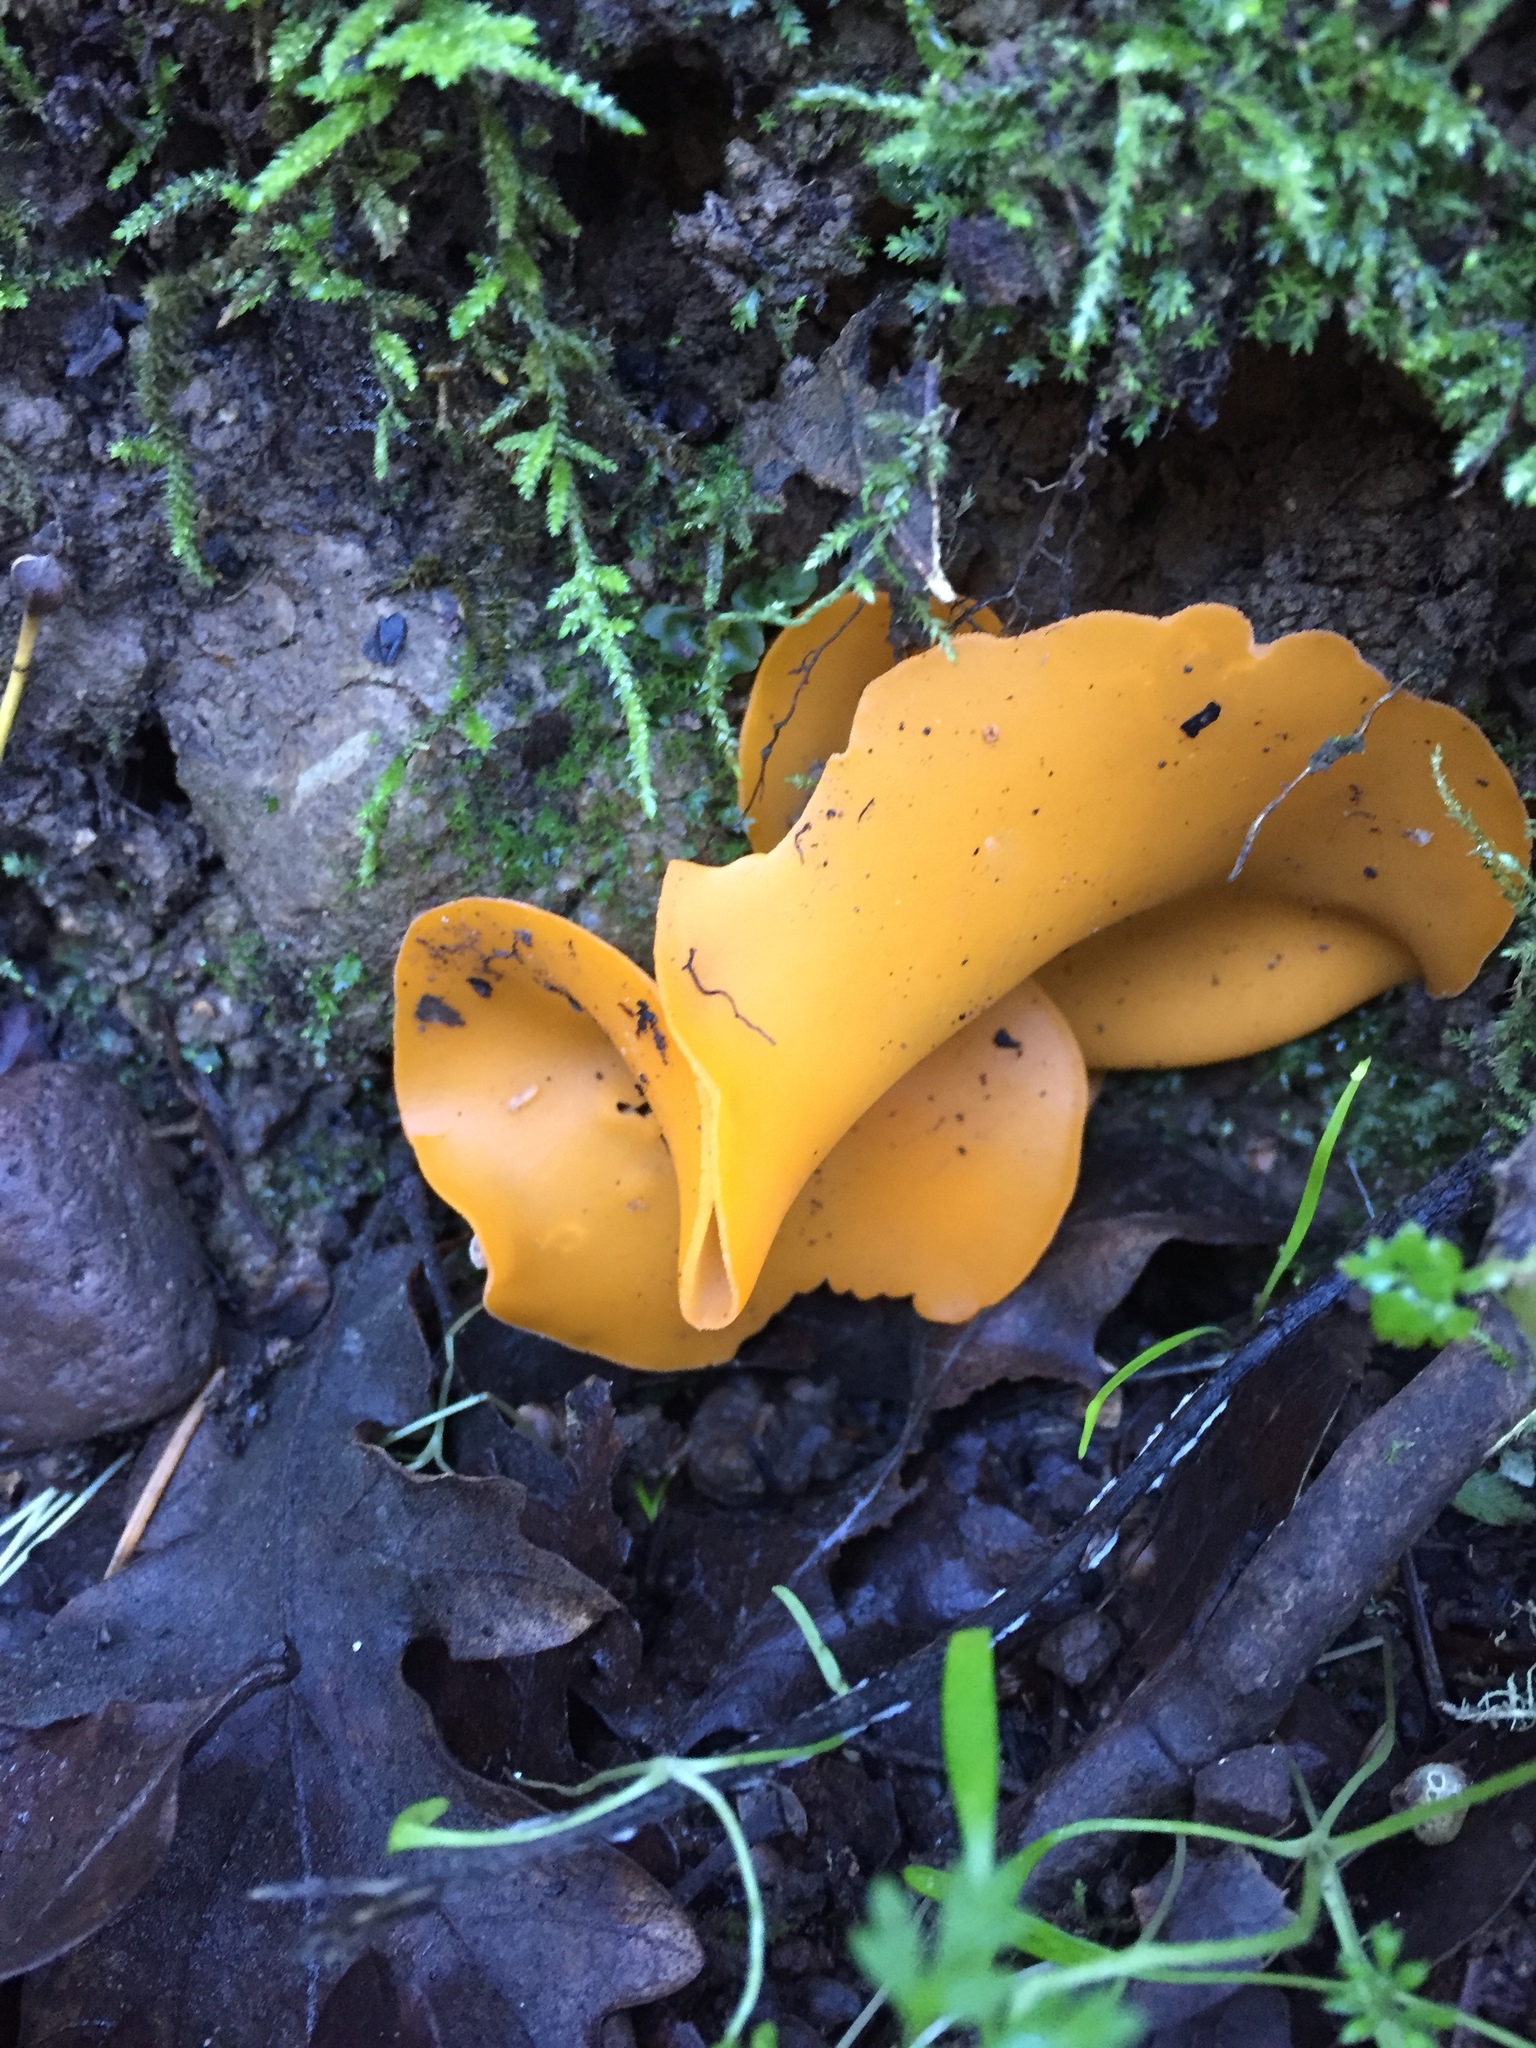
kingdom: Fungi
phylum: Ascomycota
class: Pezizomycetes
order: Pezizales
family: Pyronemataceae
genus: Aleuria
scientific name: Aleuria aurantia
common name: Orange peel fungus
